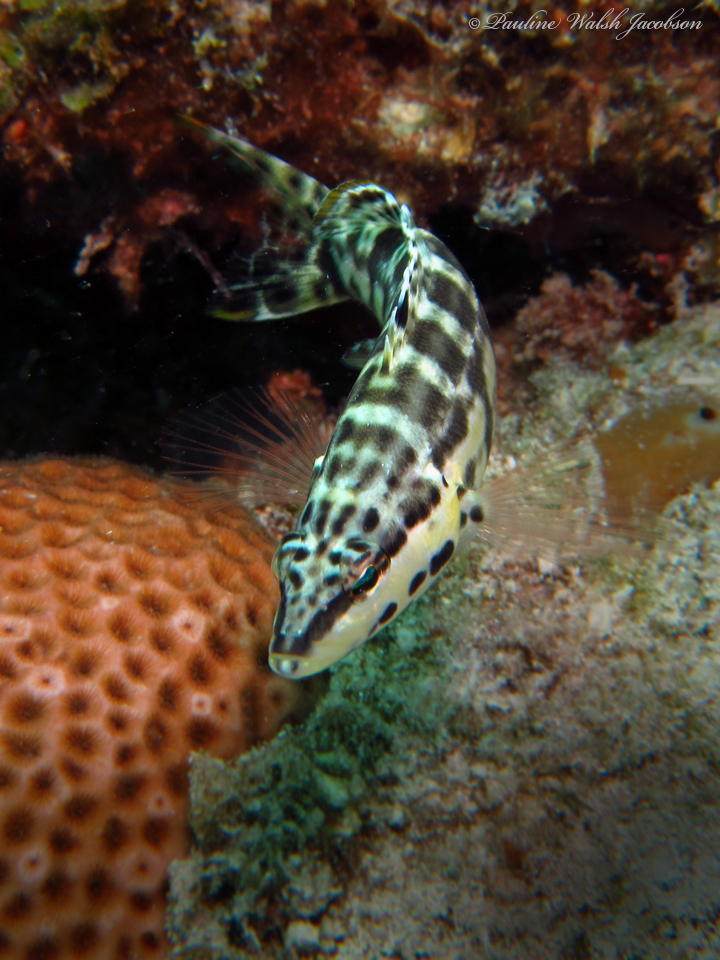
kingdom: Animalia
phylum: Chordata
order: Perciformes
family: Serranidae
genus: Serranus
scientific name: Serranus tigrinus
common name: Harlequin bass
